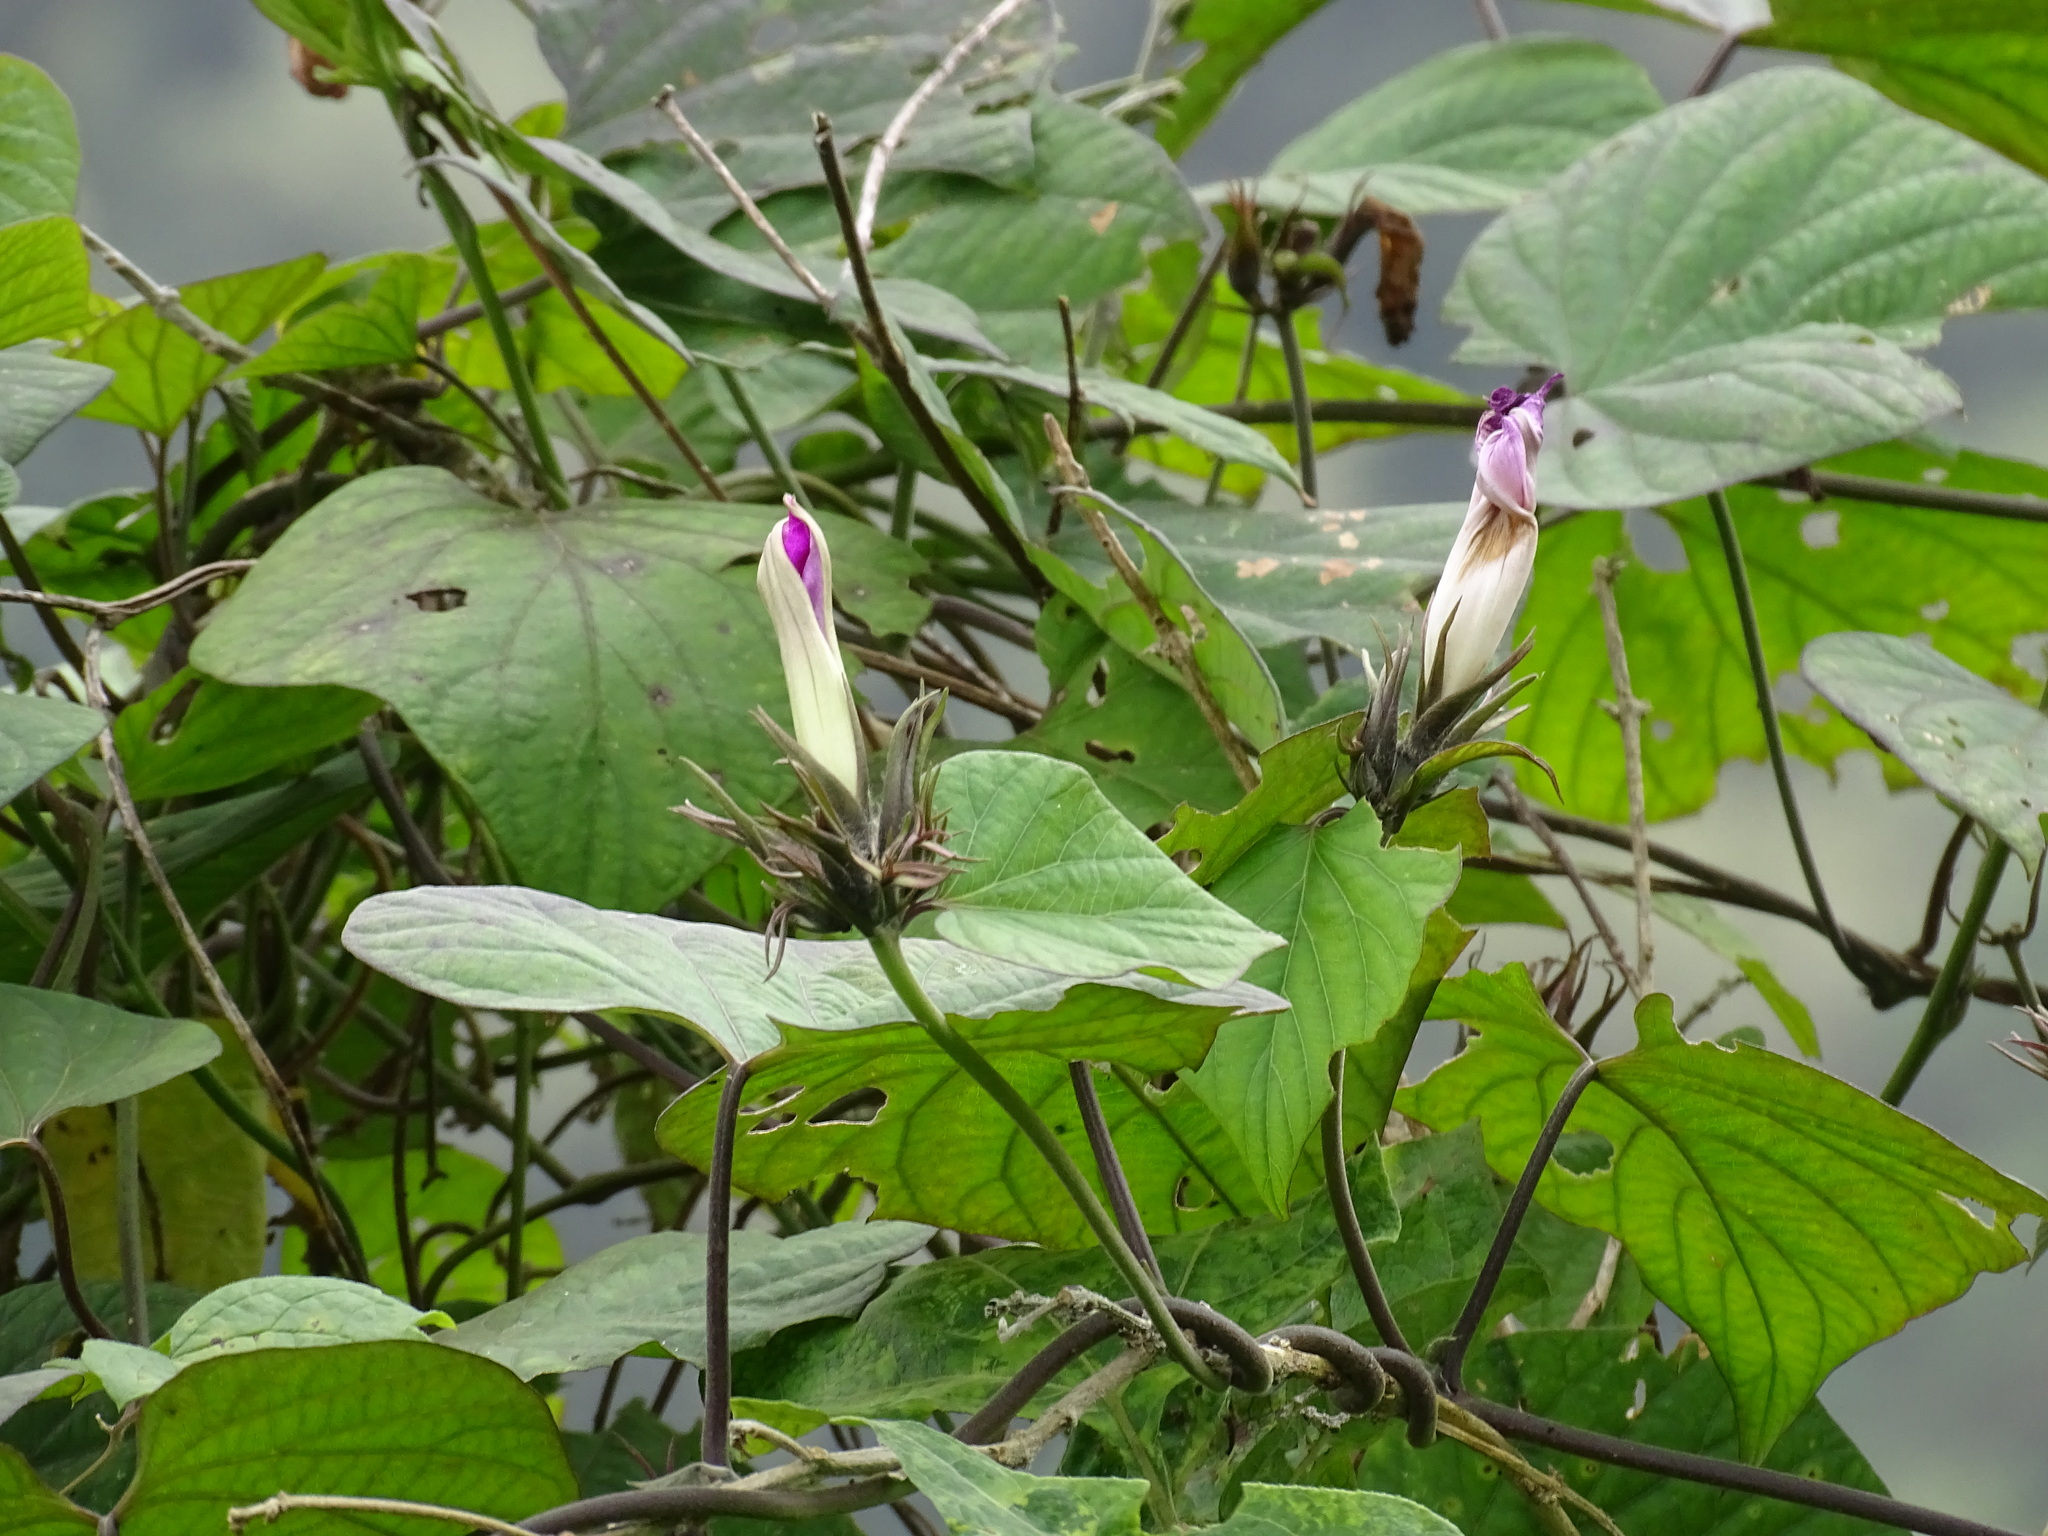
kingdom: Plantae
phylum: Tracheophyta
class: Magnoliopsida
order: Solanales
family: Convolvulaceae
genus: Ipomoea
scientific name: Ipomoea indica
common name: Blue dawnflower
